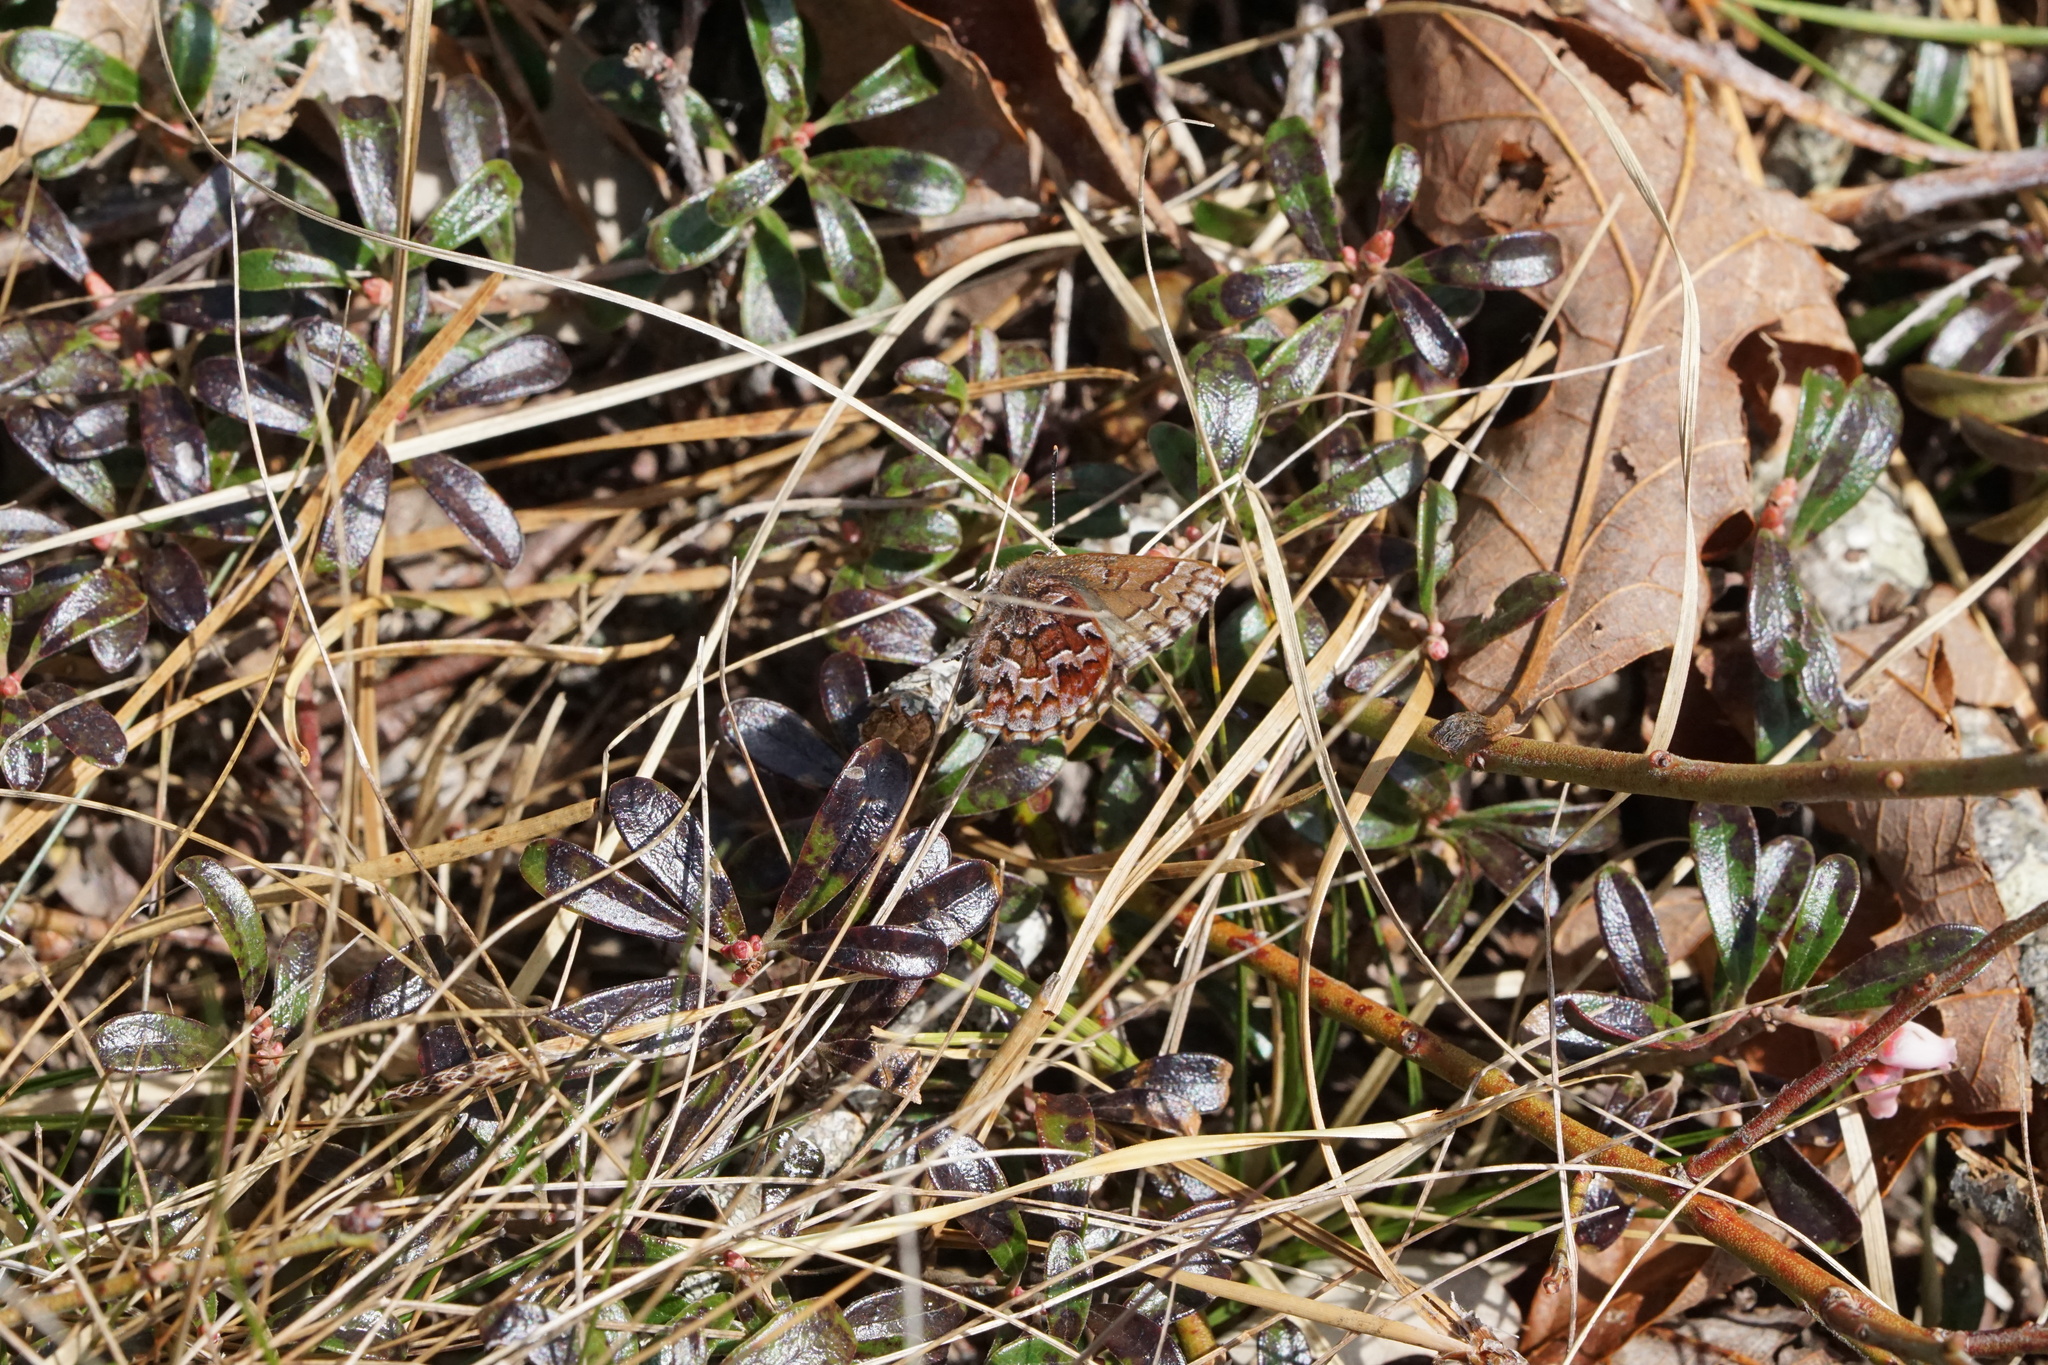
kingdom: Animalia
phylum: Arthropoda
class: Insecta
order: Lepidoptera
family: Lycaenidae
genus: Incisalia
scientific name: Incisalia niphon
